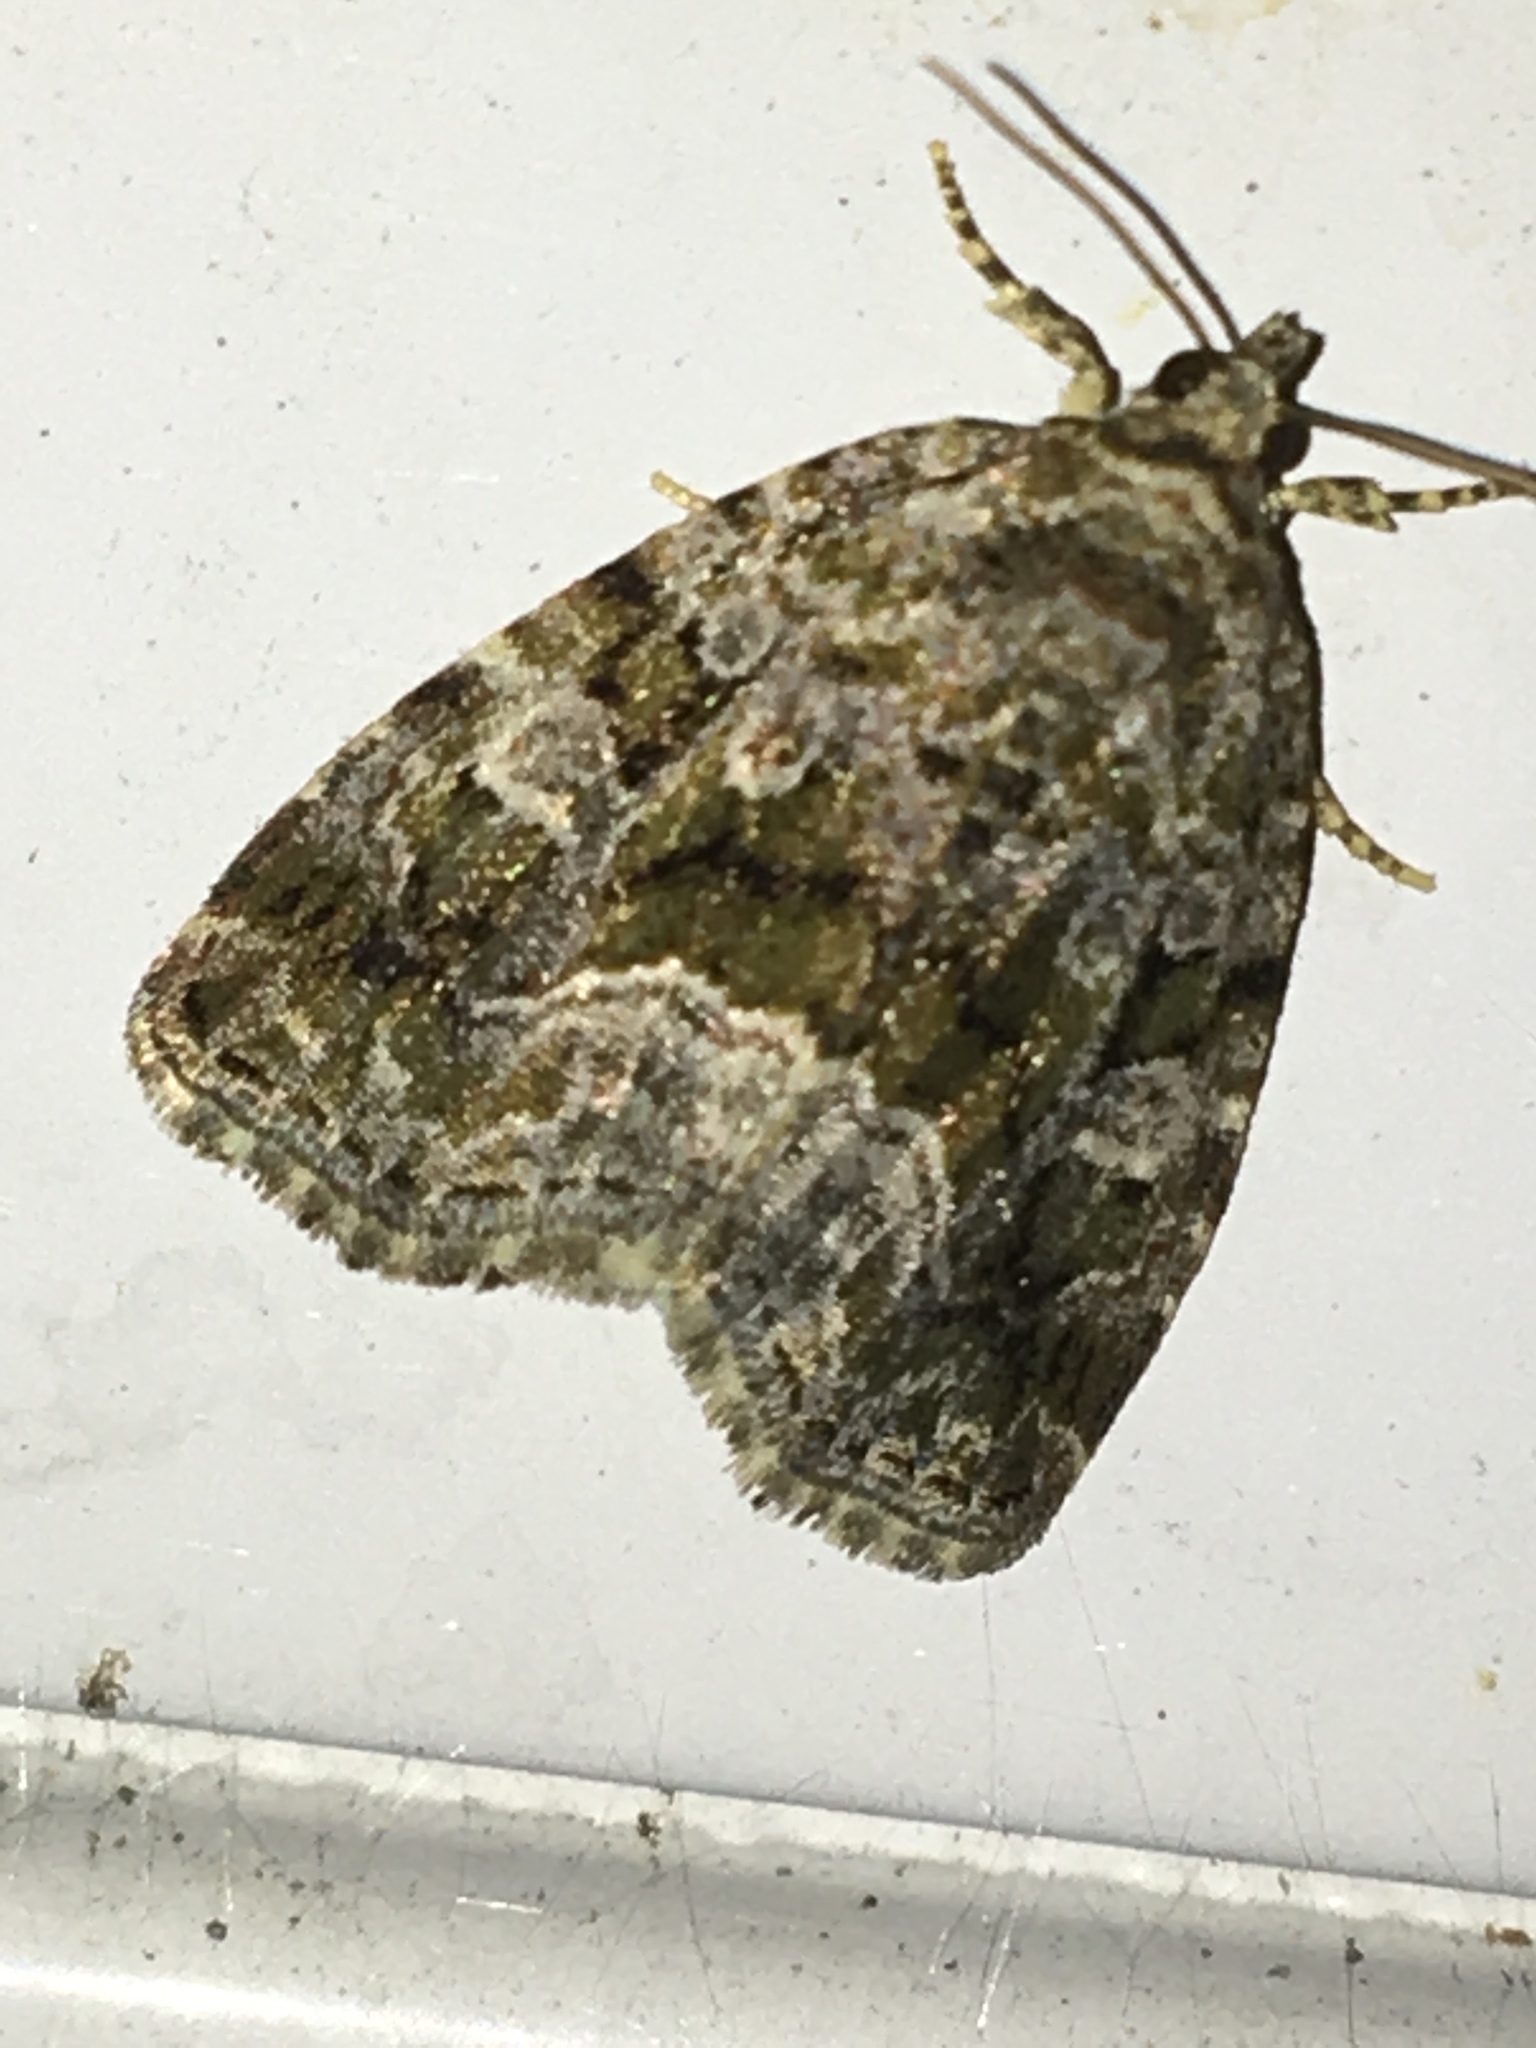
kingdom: Animalia
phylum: Arthropoda
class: Insecta
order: Lepidoptera
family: Noctuidae
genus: Protodeltote
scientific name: Protodeltote muscosula
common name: Large mossy glyph
